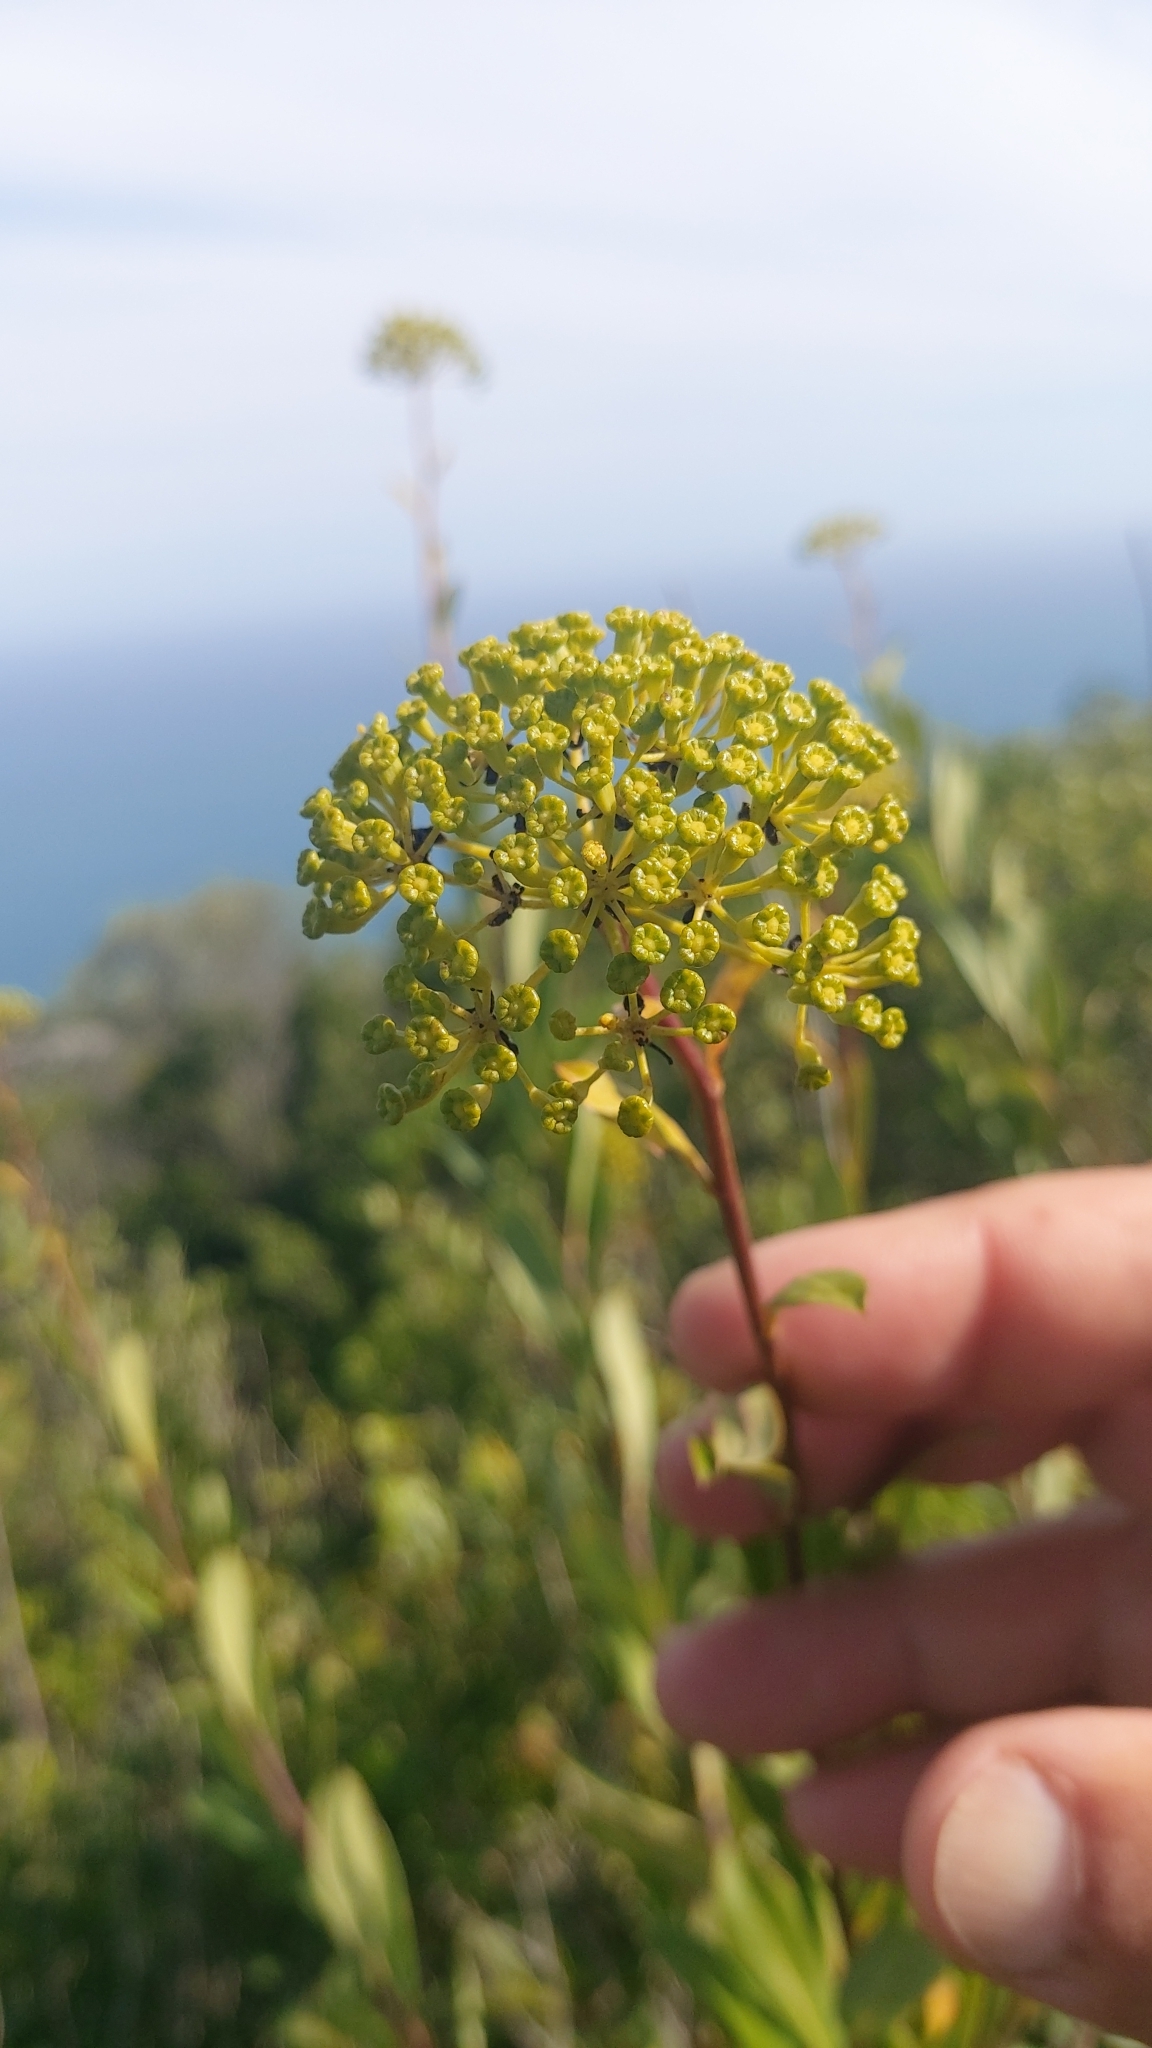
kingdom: Plantae
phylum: Tracheophyta
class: Magnoliopsida
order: Apiales
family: Apiaceae
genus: Bupleurum
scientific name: Bupleurum fruticosum
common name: Shrubby hare's-ear
